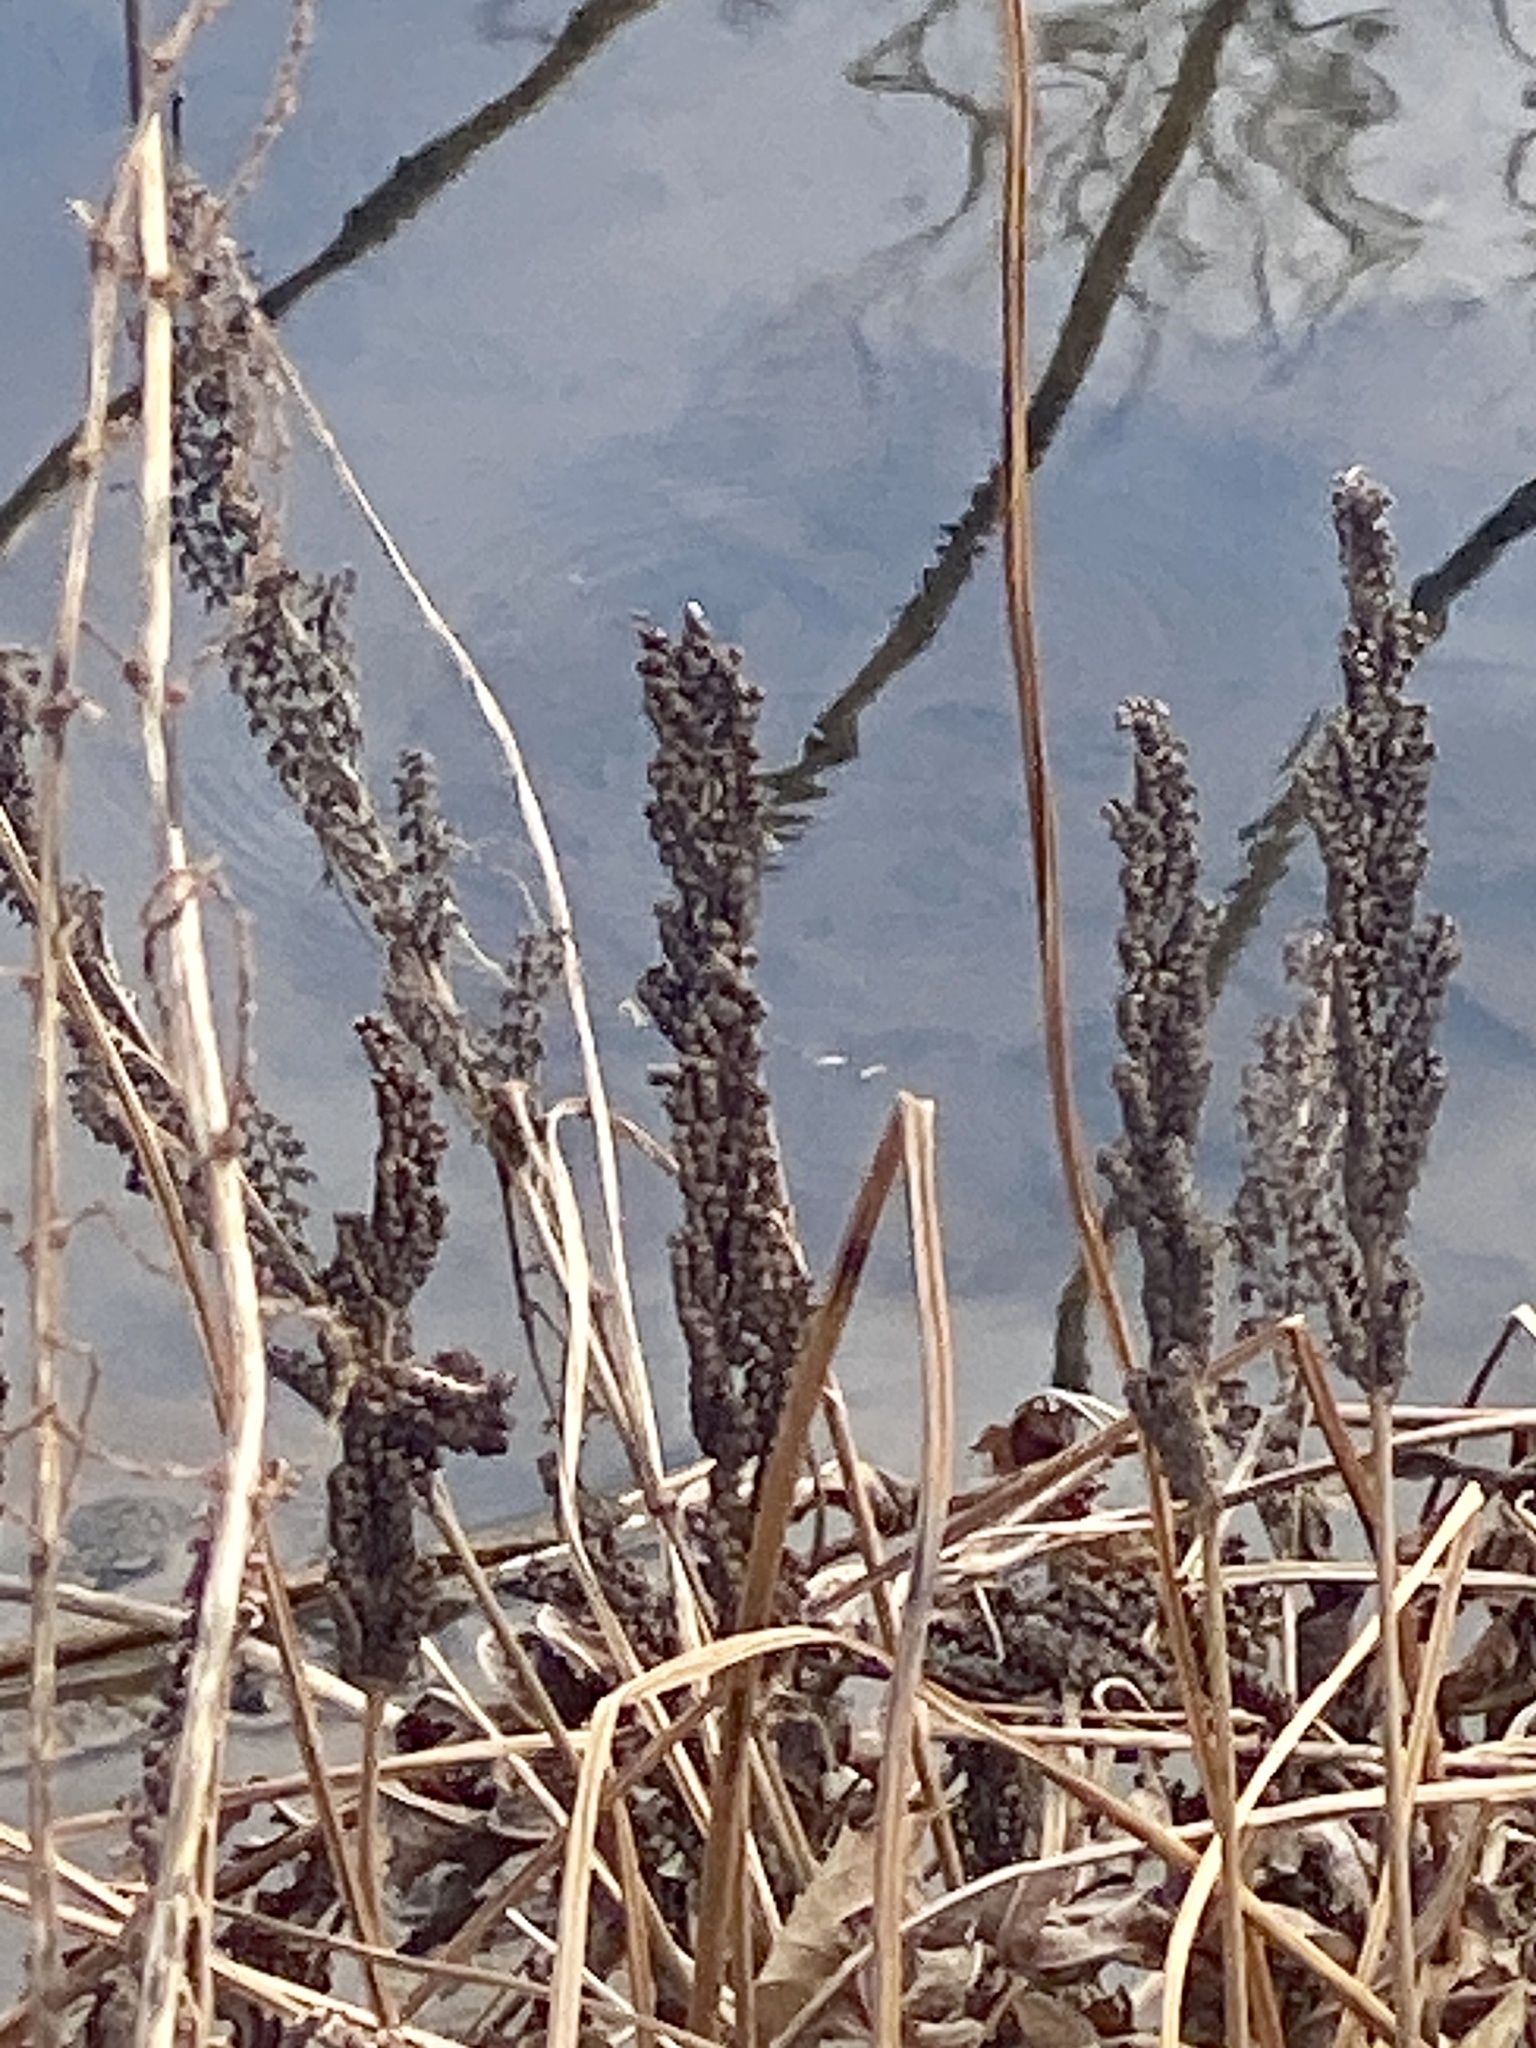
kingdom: Plantae
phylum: Tracheophyta
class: Polypodiopsida
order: Polypodiales
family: Onocleaceae
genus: Onoclea
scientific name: Onoclea sensibilis
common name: Sensitive fern
